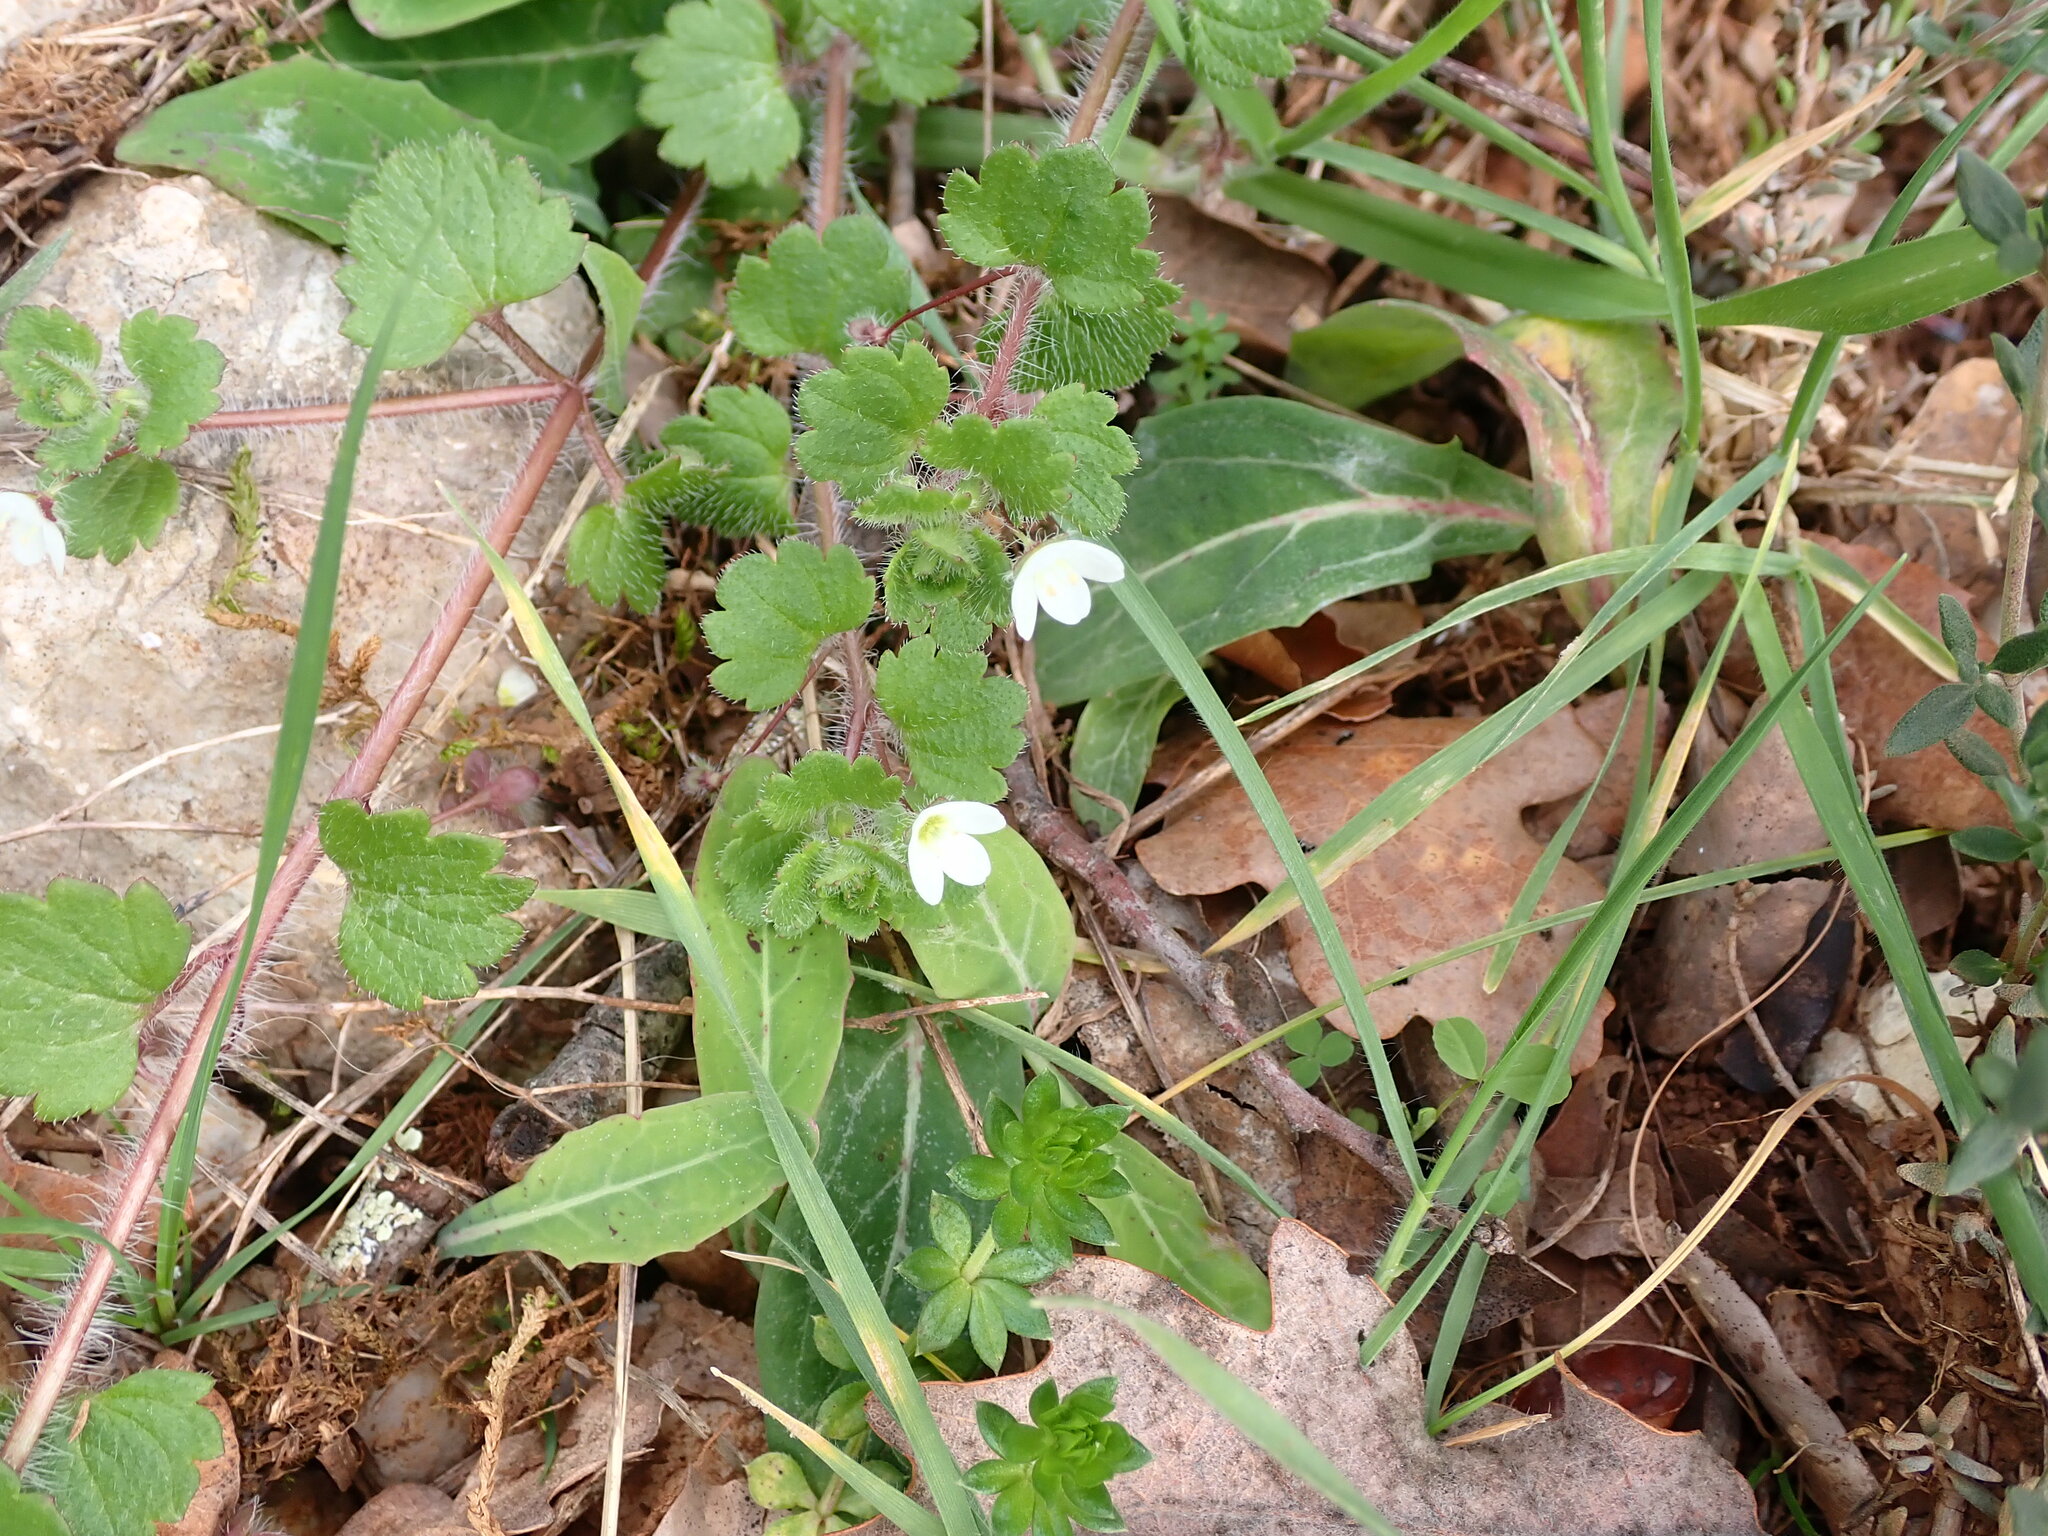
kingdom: Plantae
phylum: Tracheophyta
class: Magnoliopsida
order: Lamiales
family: Plantaginaceae
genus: Veronica
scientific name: Veronica cymbalaria
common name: Pale speedwell
